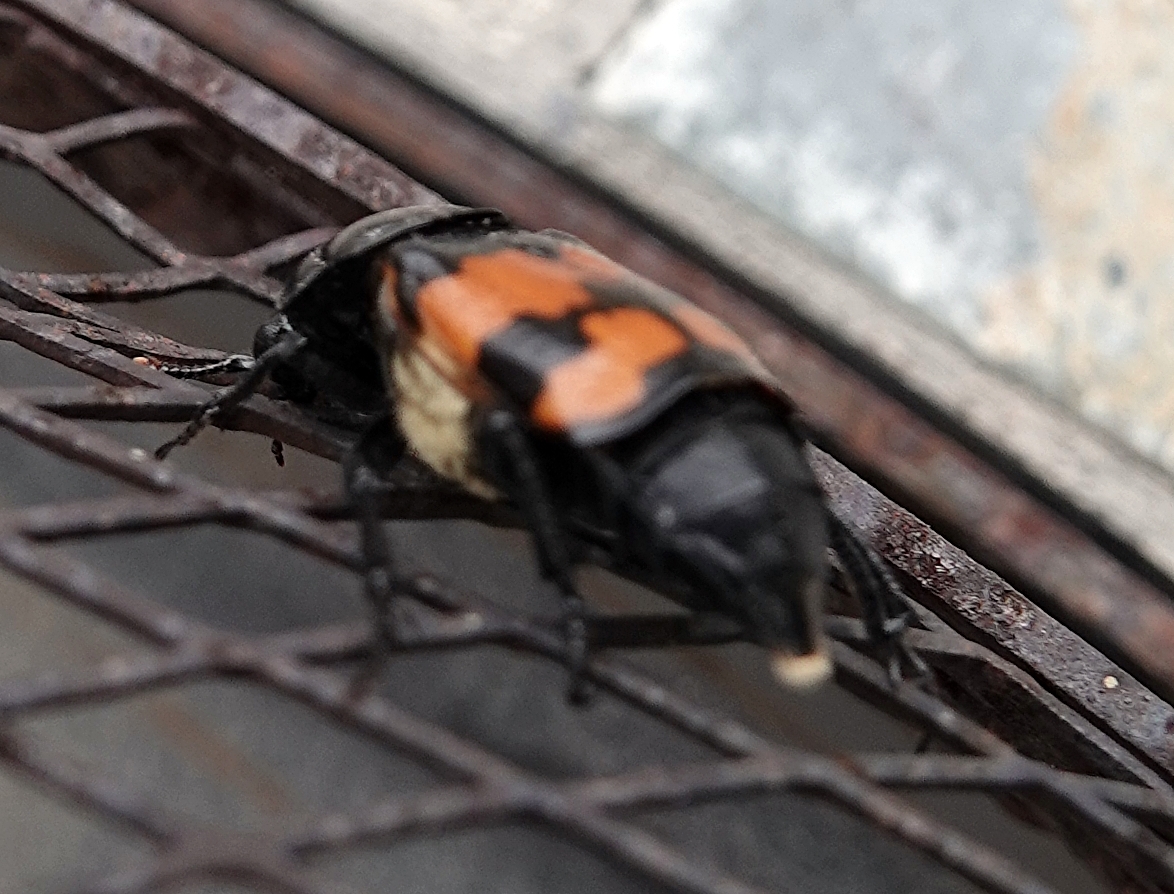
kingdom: Animalia
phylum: Arthropoda
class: Insecta
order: Coleoptera
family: Staphylinidae
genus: Nicrophorus
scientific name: Nicrophorus guttula
